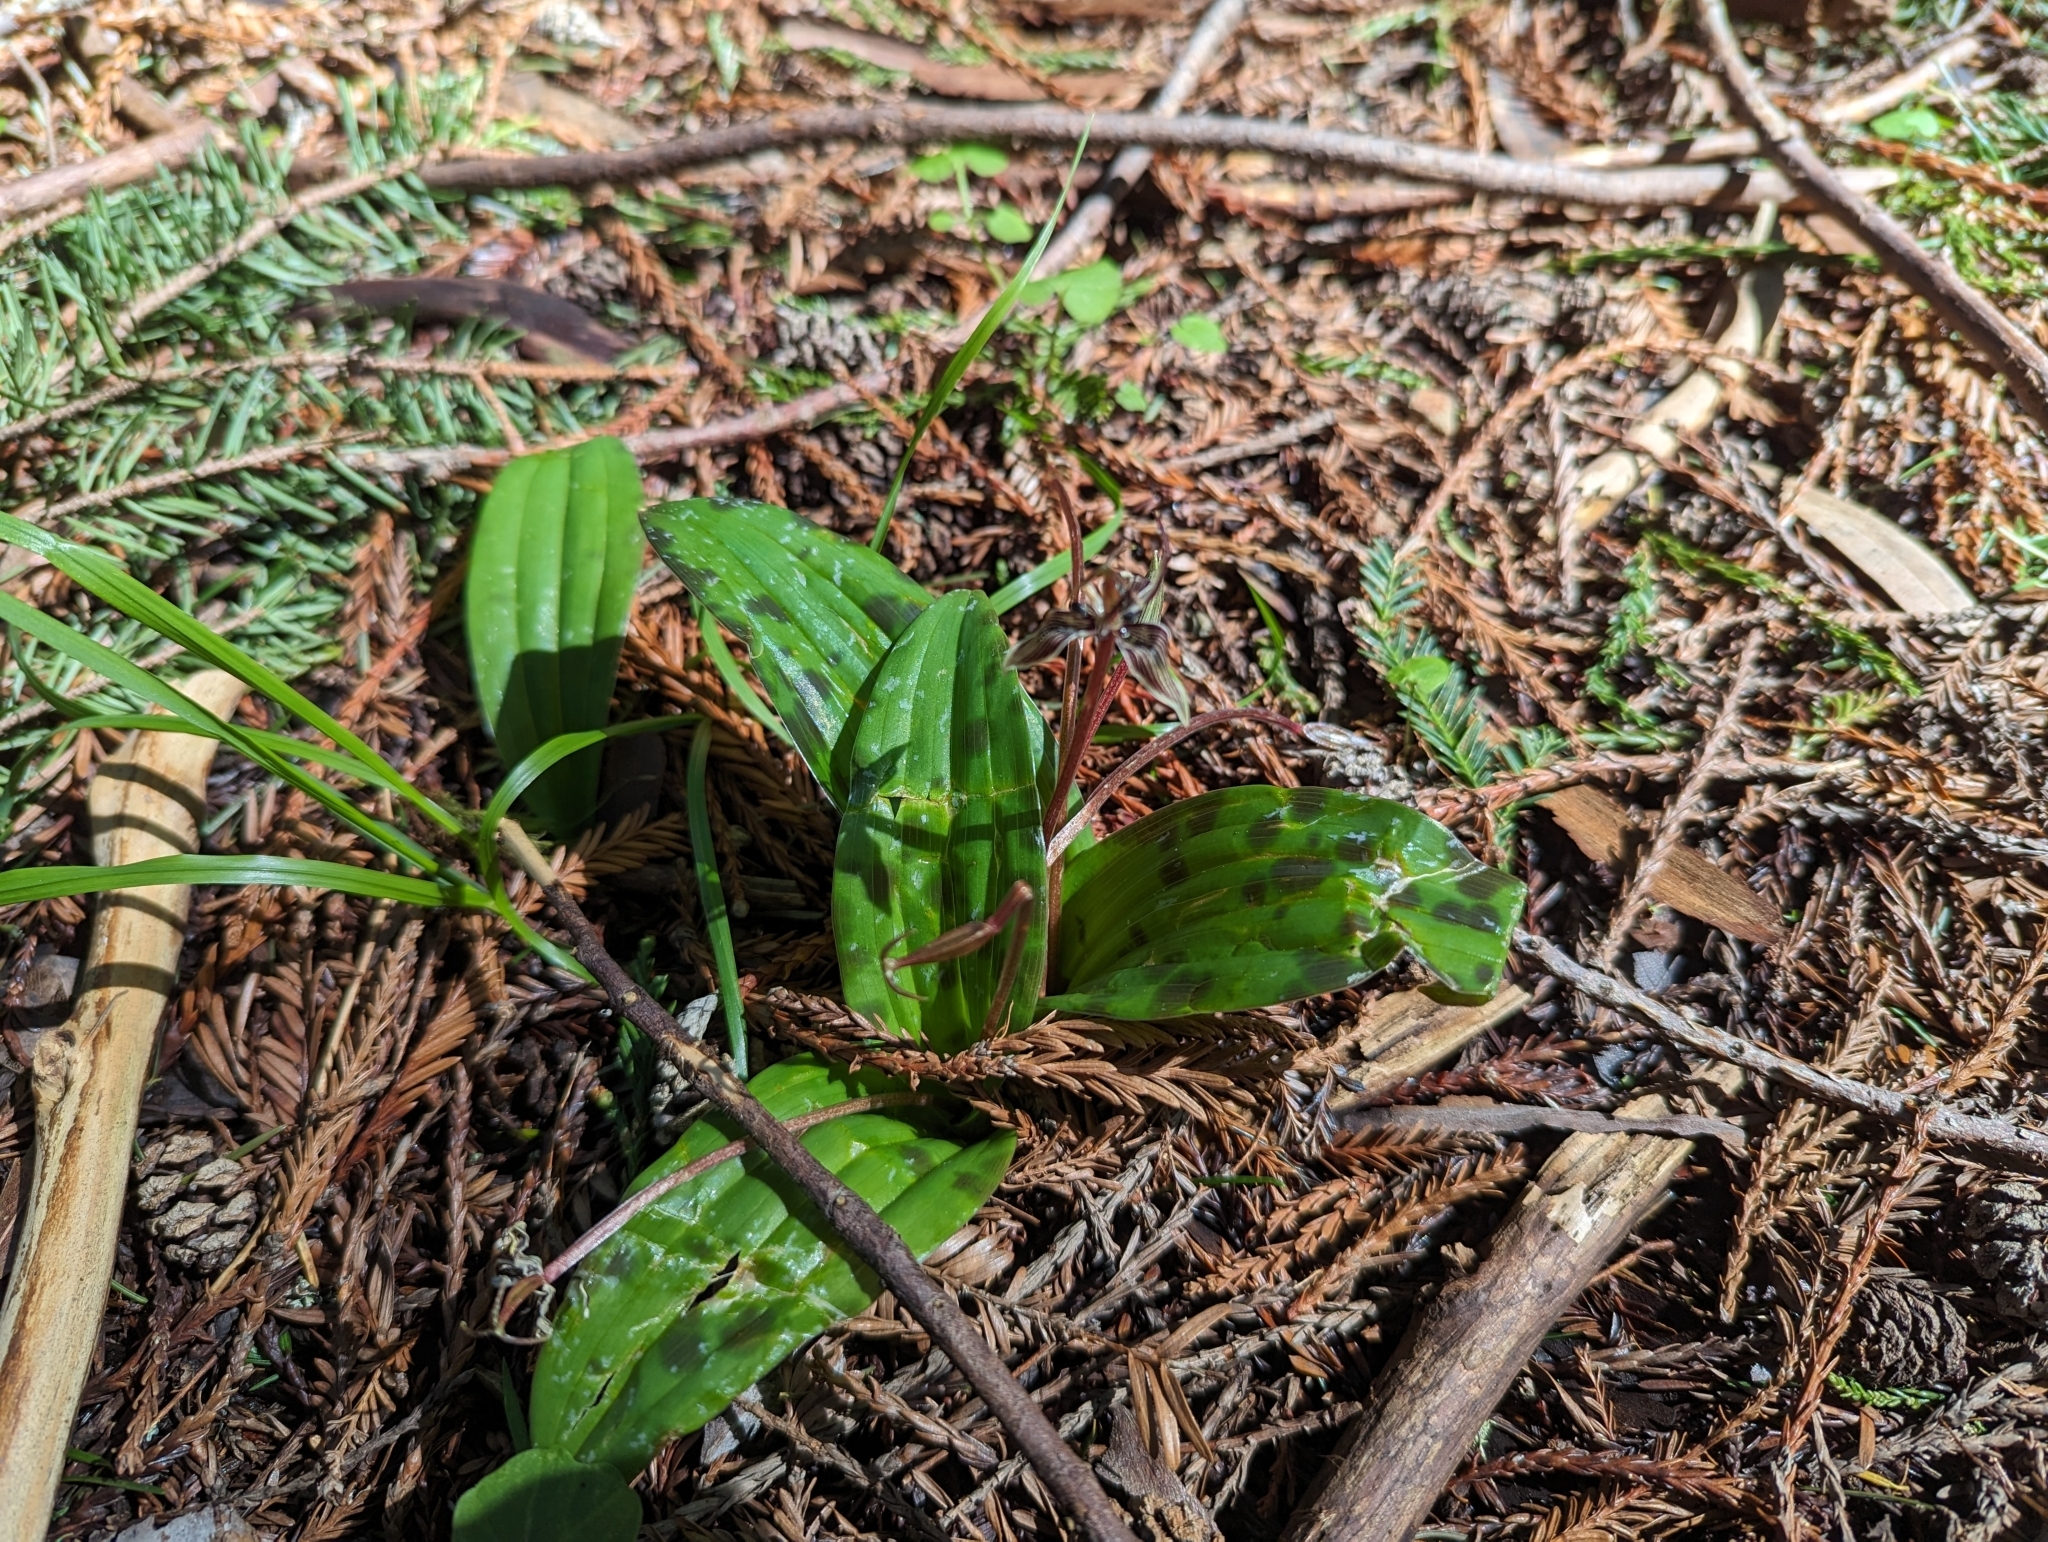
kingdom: Plantae
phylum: Tracheophyta
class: Liliopsida
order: Liliales
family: Liliaceae
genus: Scoliopus
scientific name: Scoliopus bigelovii
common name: Foetid adder's-tongue
